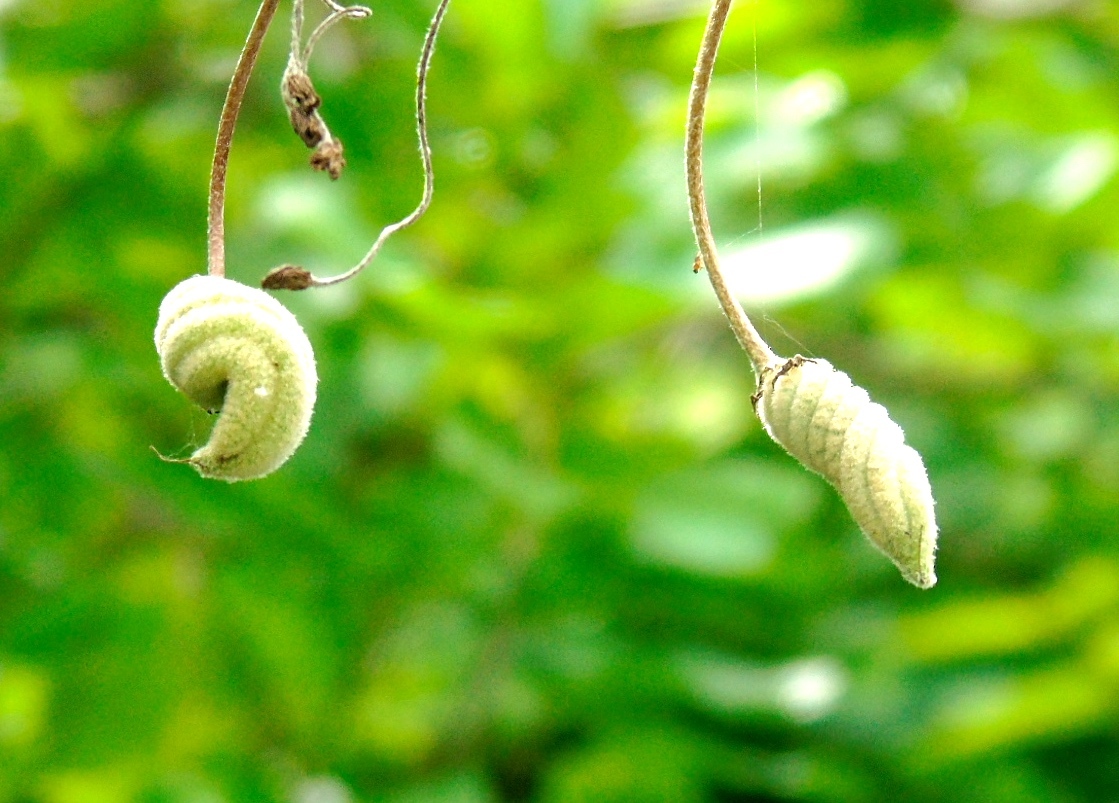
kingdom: Plantae
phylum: Tracheophyta
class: Magnoliopsida
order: Malvales
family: Malvaceae
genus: Helicteres
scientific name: Helicteres baruensis
